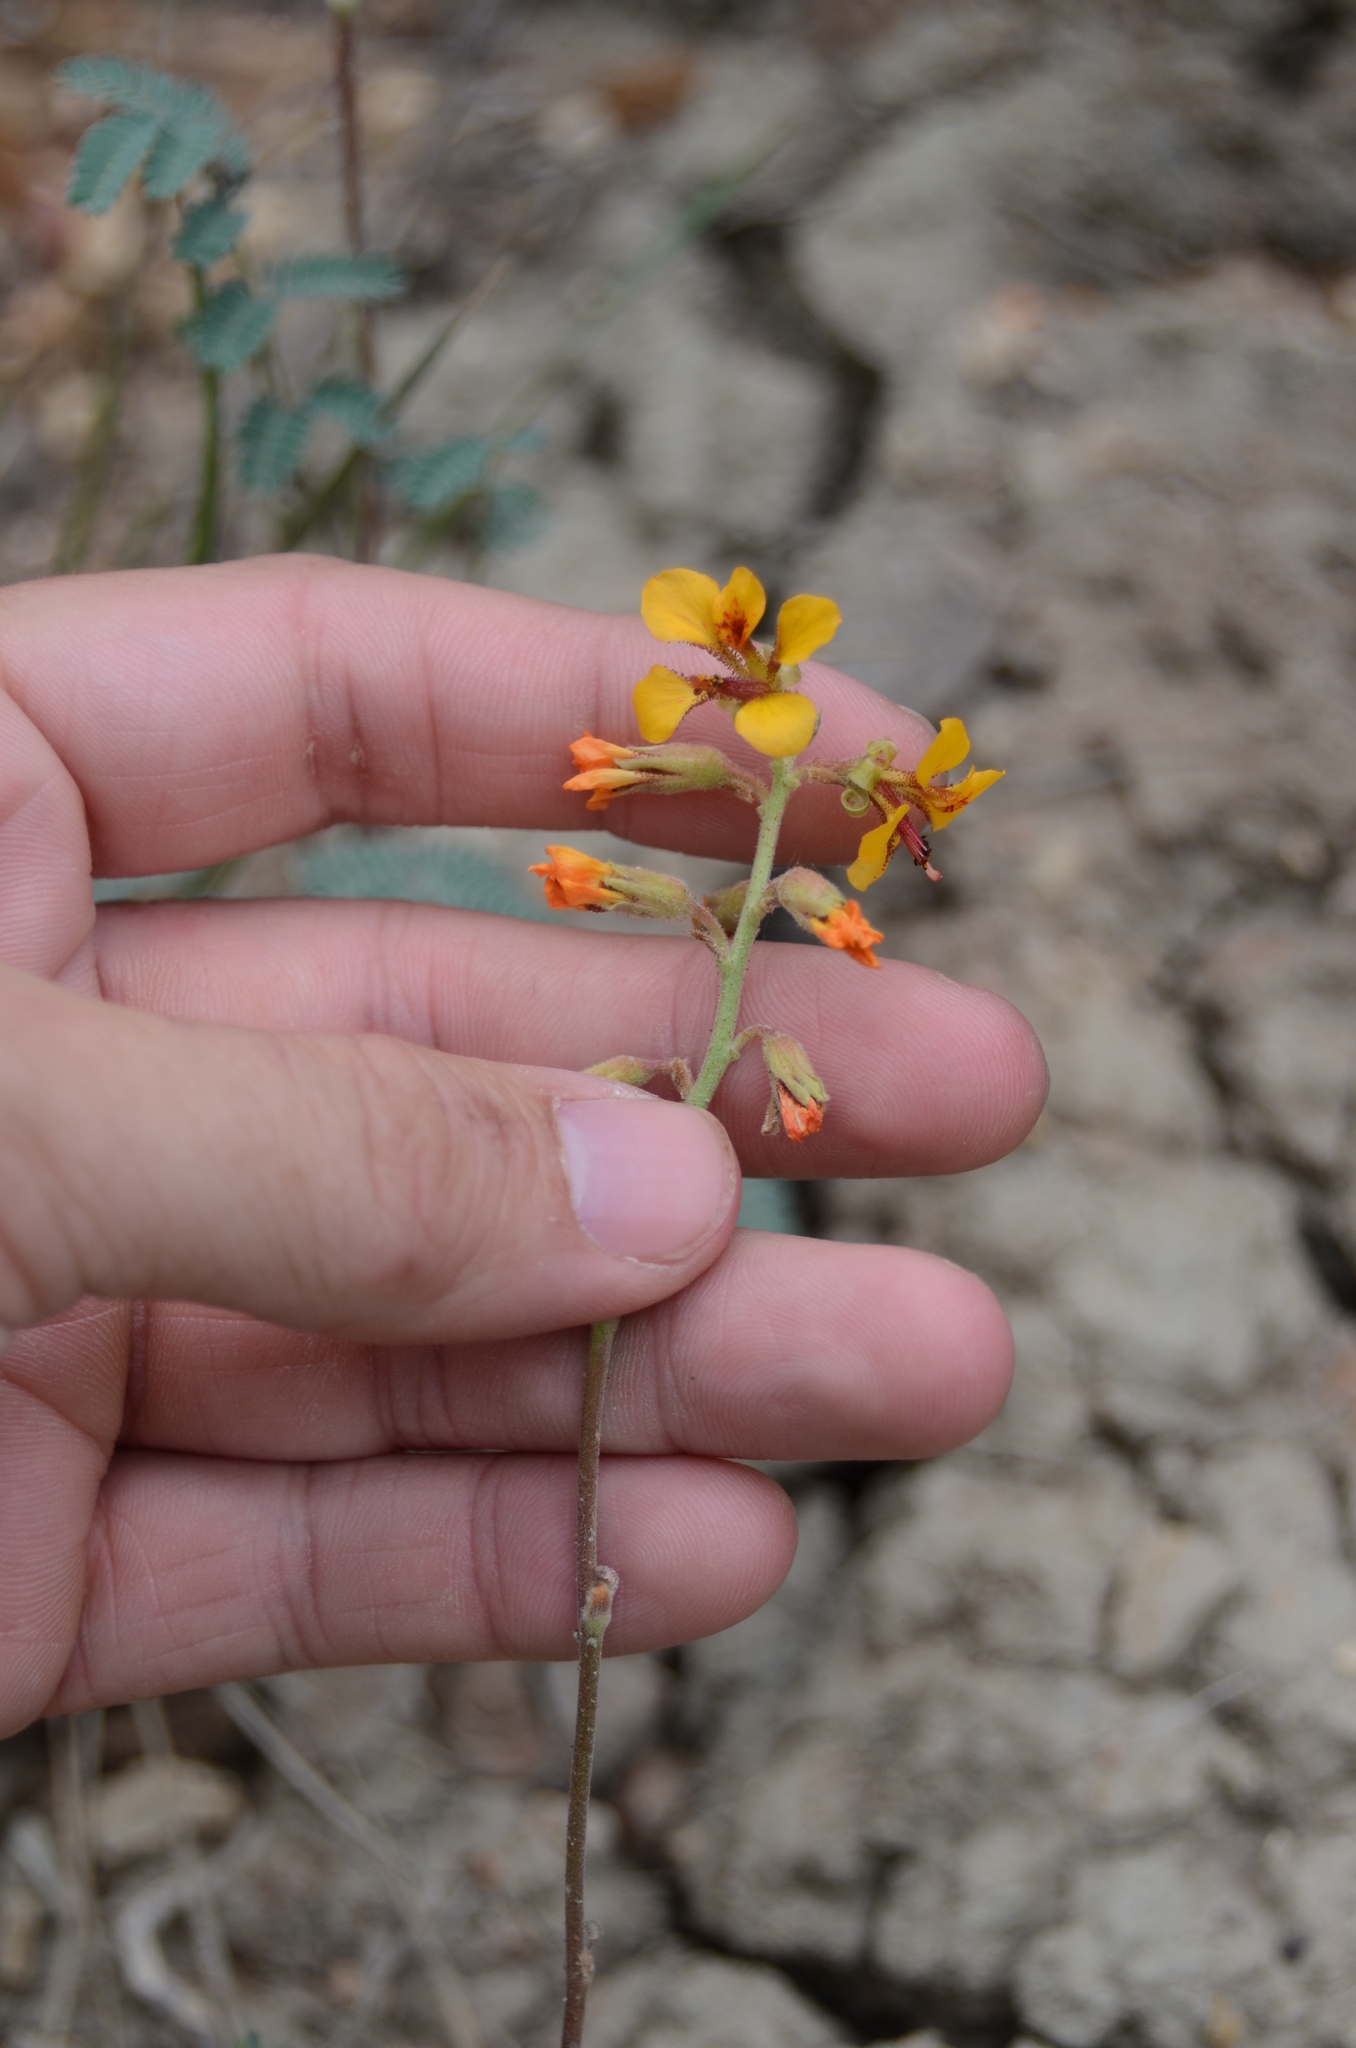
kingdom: Plantae
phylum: Tracheophyta
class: Magnoliopsida
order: Fabales
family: Fabaceae
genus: Hoffmannseggia
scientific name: Hoffmannseggia glauca
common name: Pignut
